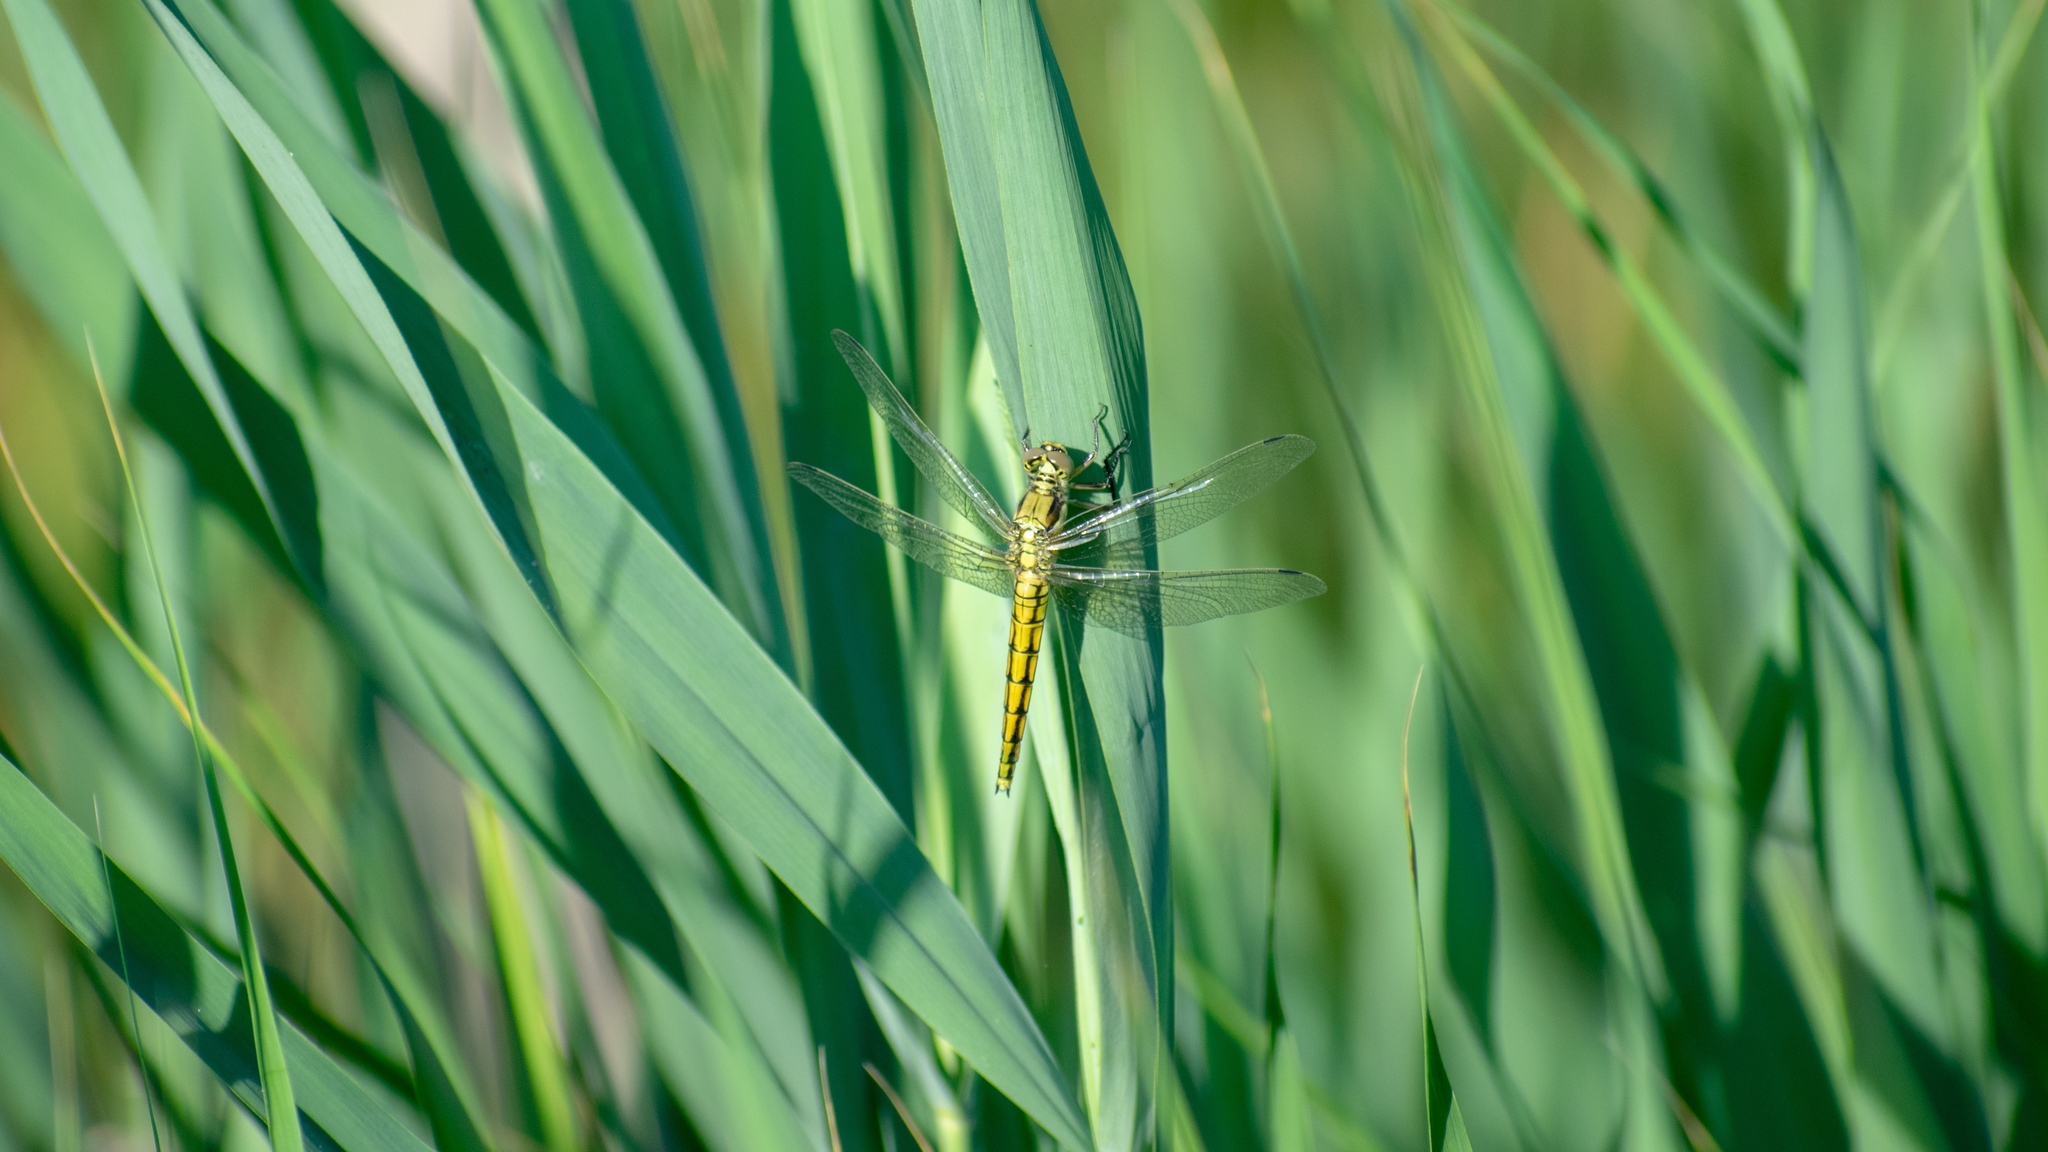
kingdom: Animalia
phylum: Arthropoda
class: Insecta
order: Odonata
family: Libellulidae
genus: Orthetrum
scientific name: Orthetrum cancellatum
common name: Black-tailed skimmer
